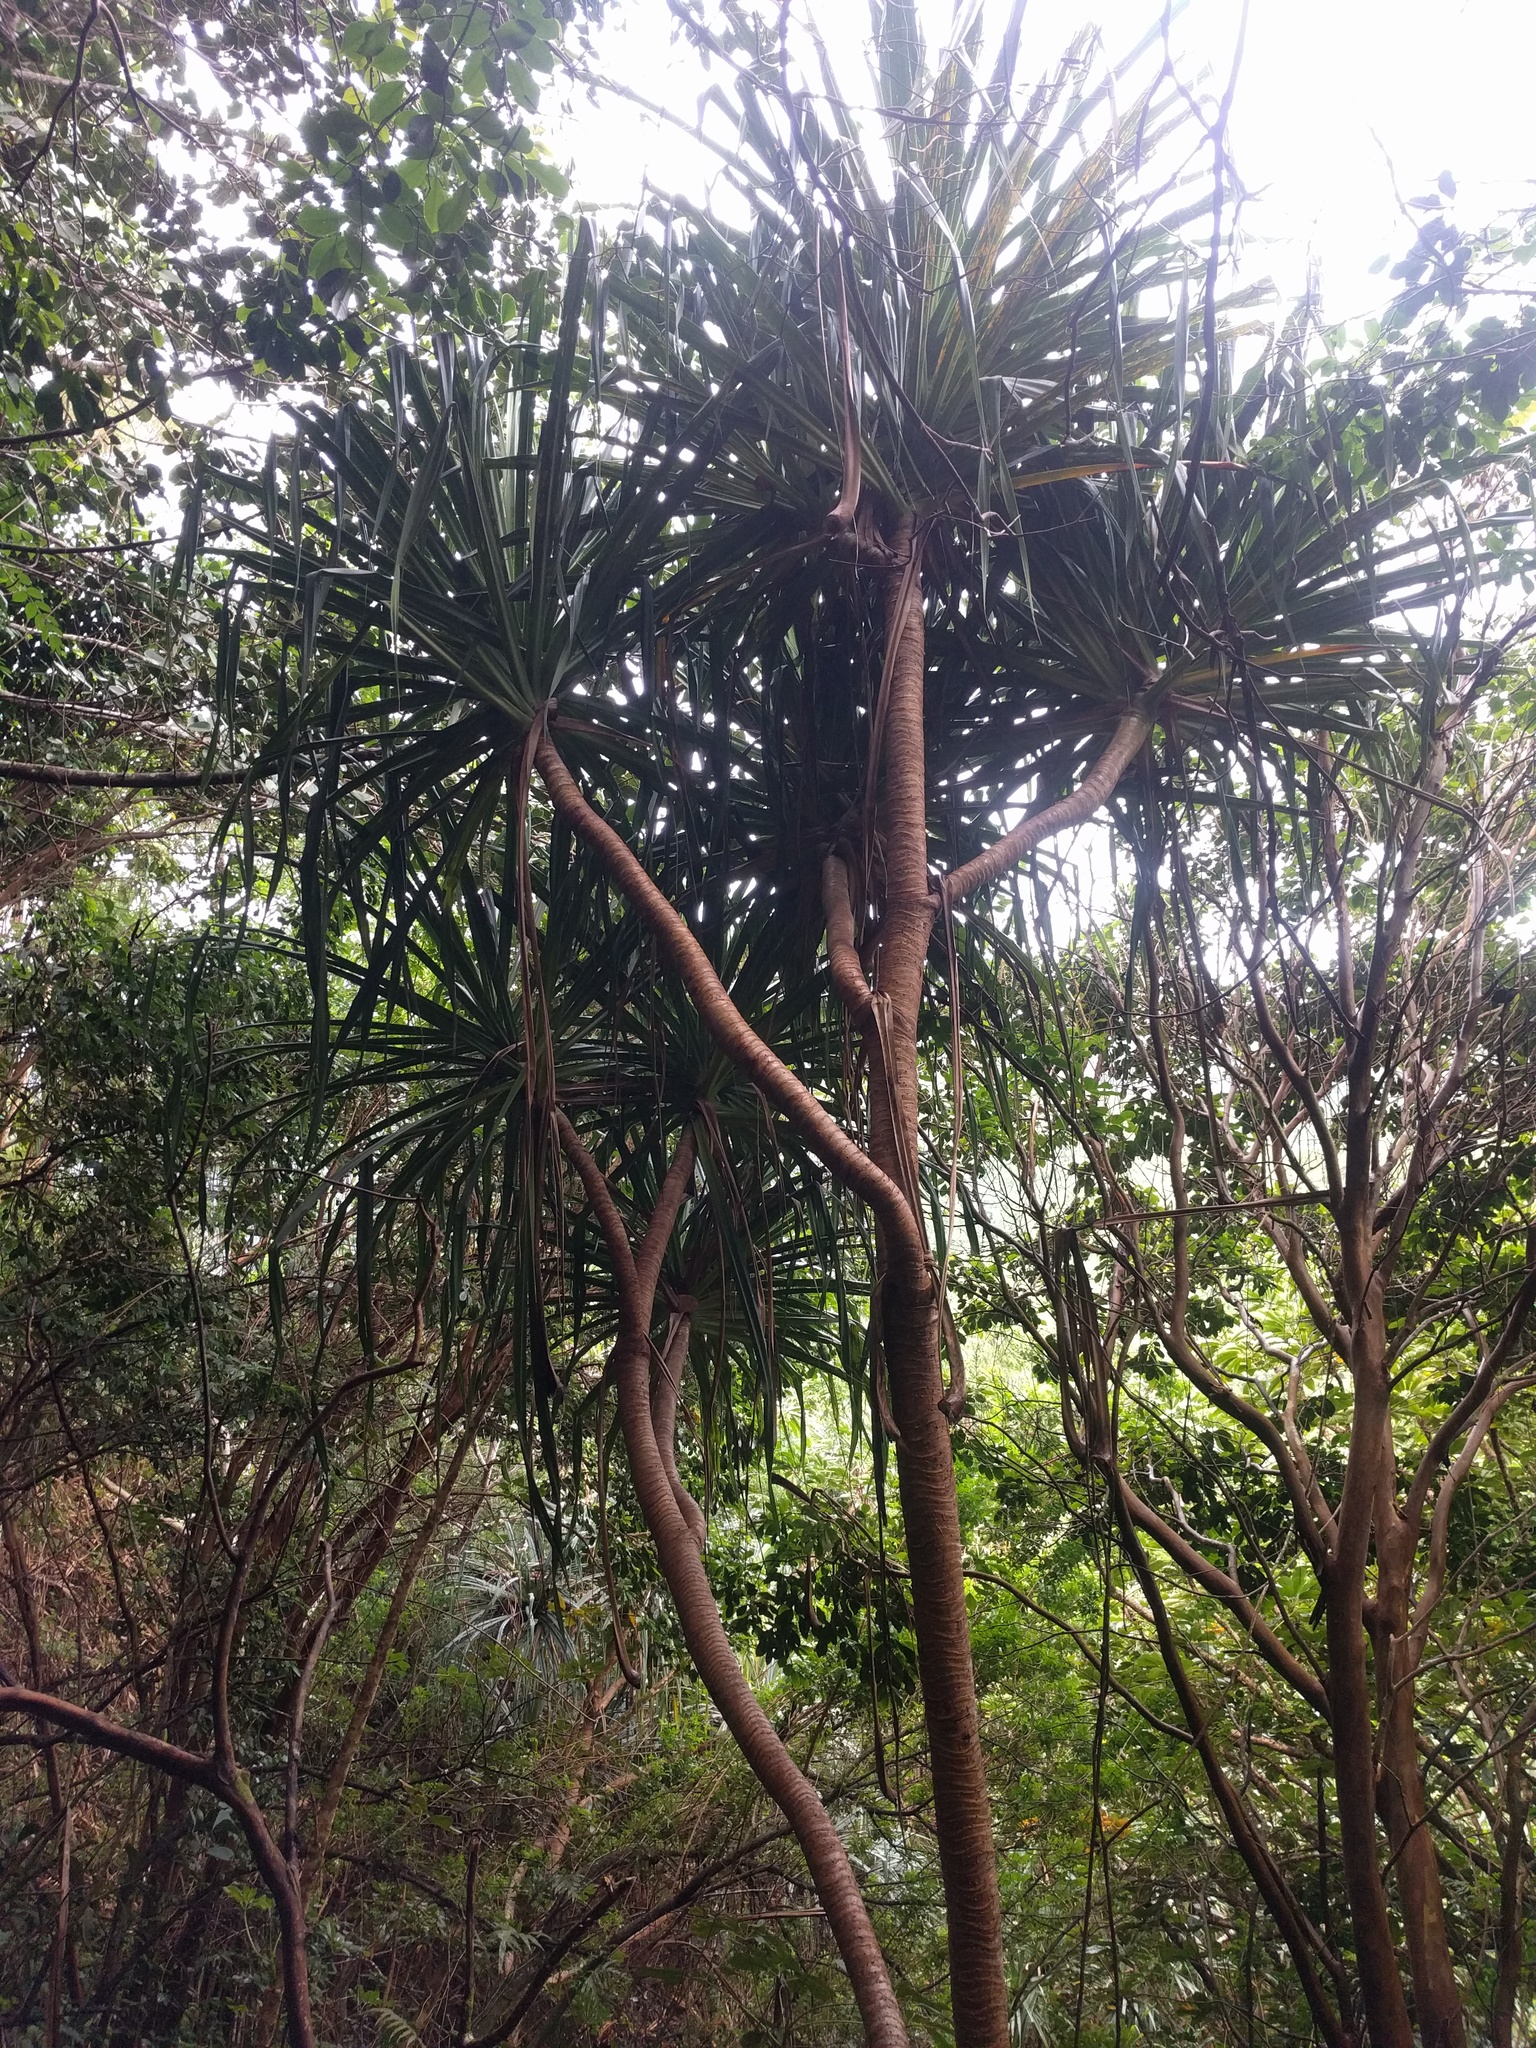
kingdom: Plantae
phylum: Tracheophyta
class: Liliopsida
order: Pandanales
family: Pandanaceae
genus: Pandanus
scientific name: Pandanus tectorius
